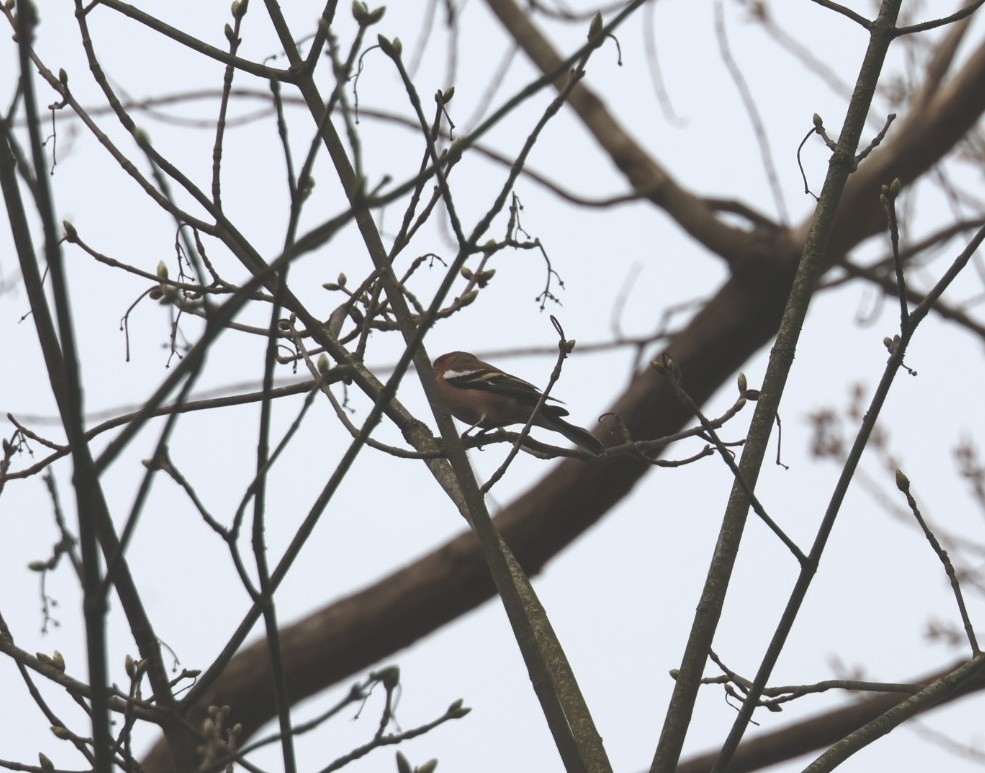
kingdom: Animalia
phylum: Chordata
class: Aves
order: Passeriformes
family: Fringillidae
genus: Fringilla
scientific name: Fringilla coelebs
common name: Common chaffinch
